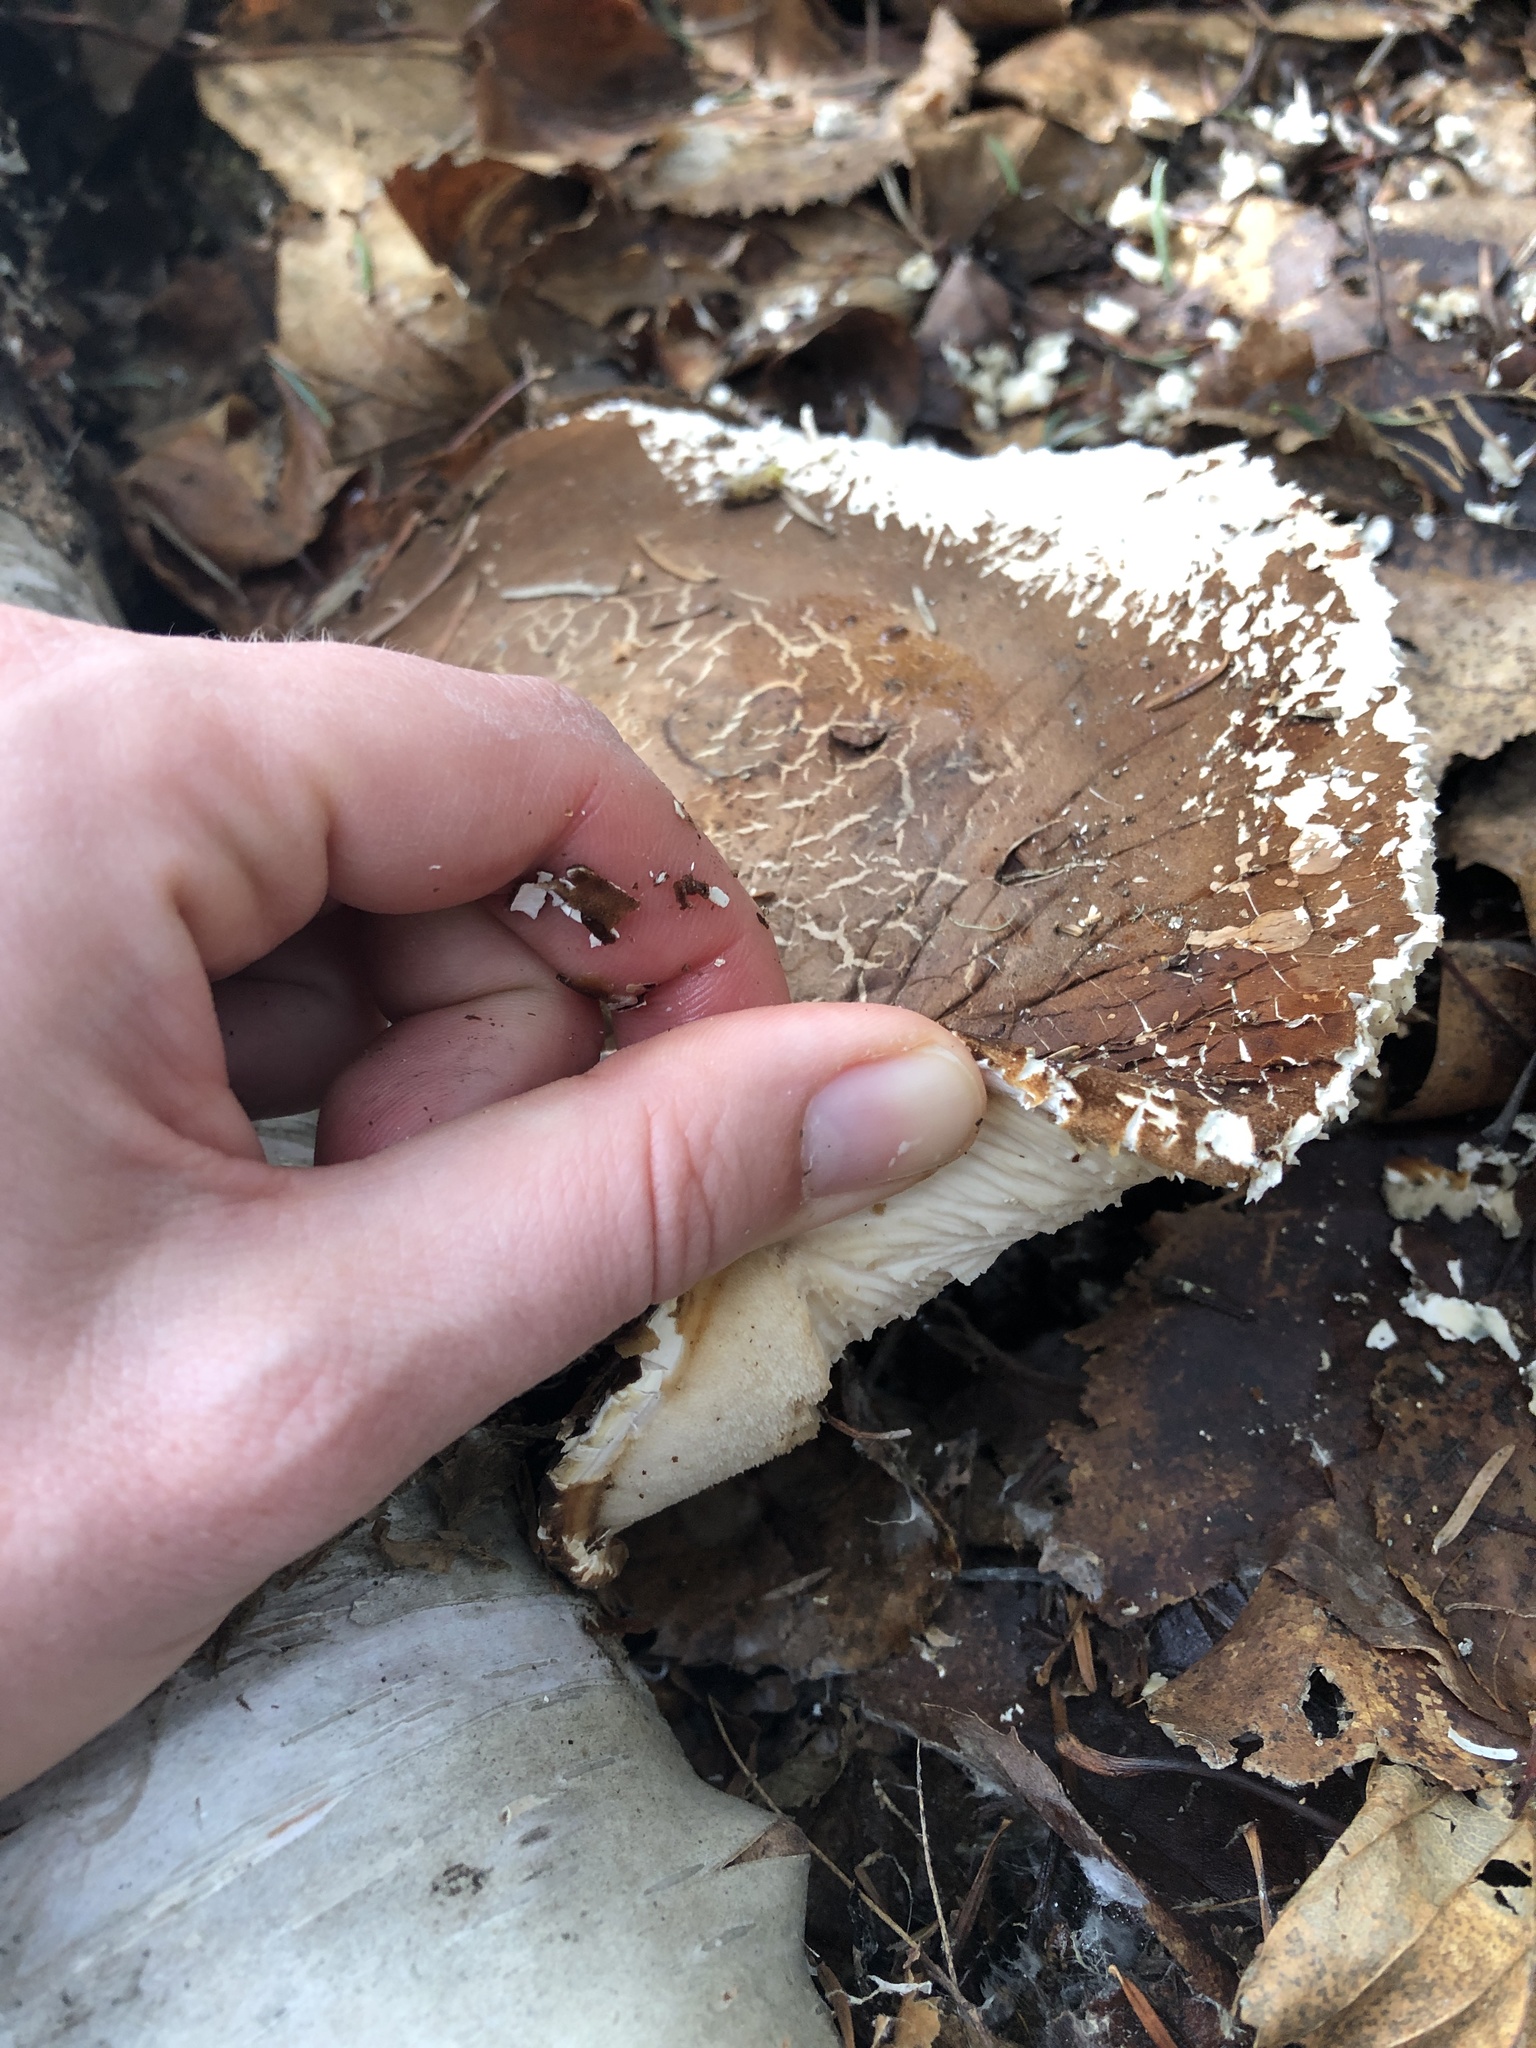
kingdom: Fungi
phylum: Basidiomycota
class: Agaricomycetes
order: Polyporales
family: Fomitopsidaceae
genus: Fomitopsis
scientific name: Fomitopsis betulina
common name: Birch polypore
